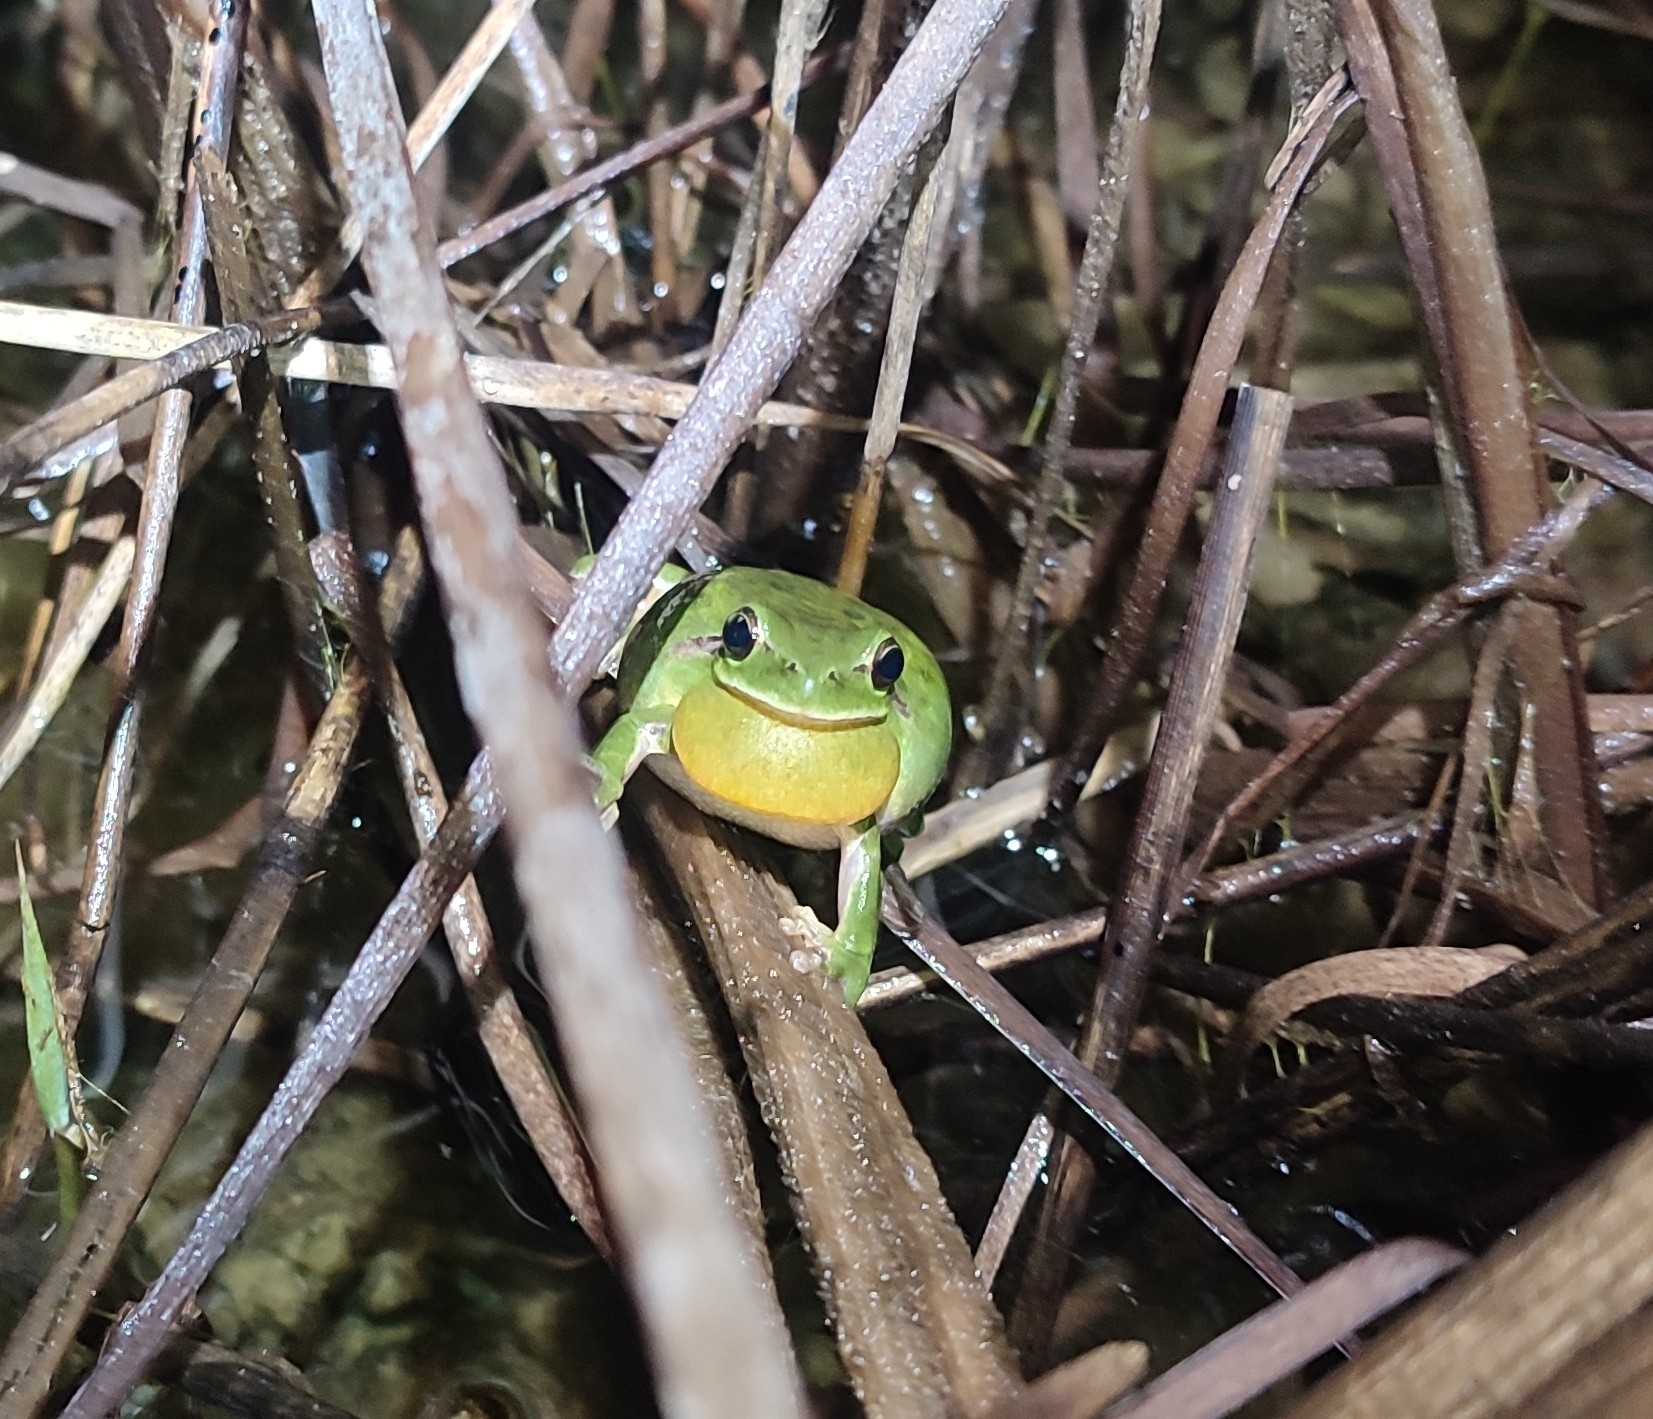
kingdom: Animalia
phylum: Chordata
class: Amphibia
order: Anura
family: Hylidae
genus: Hyla
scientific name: Hyla meridionalis
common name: Stripeless tree frog
